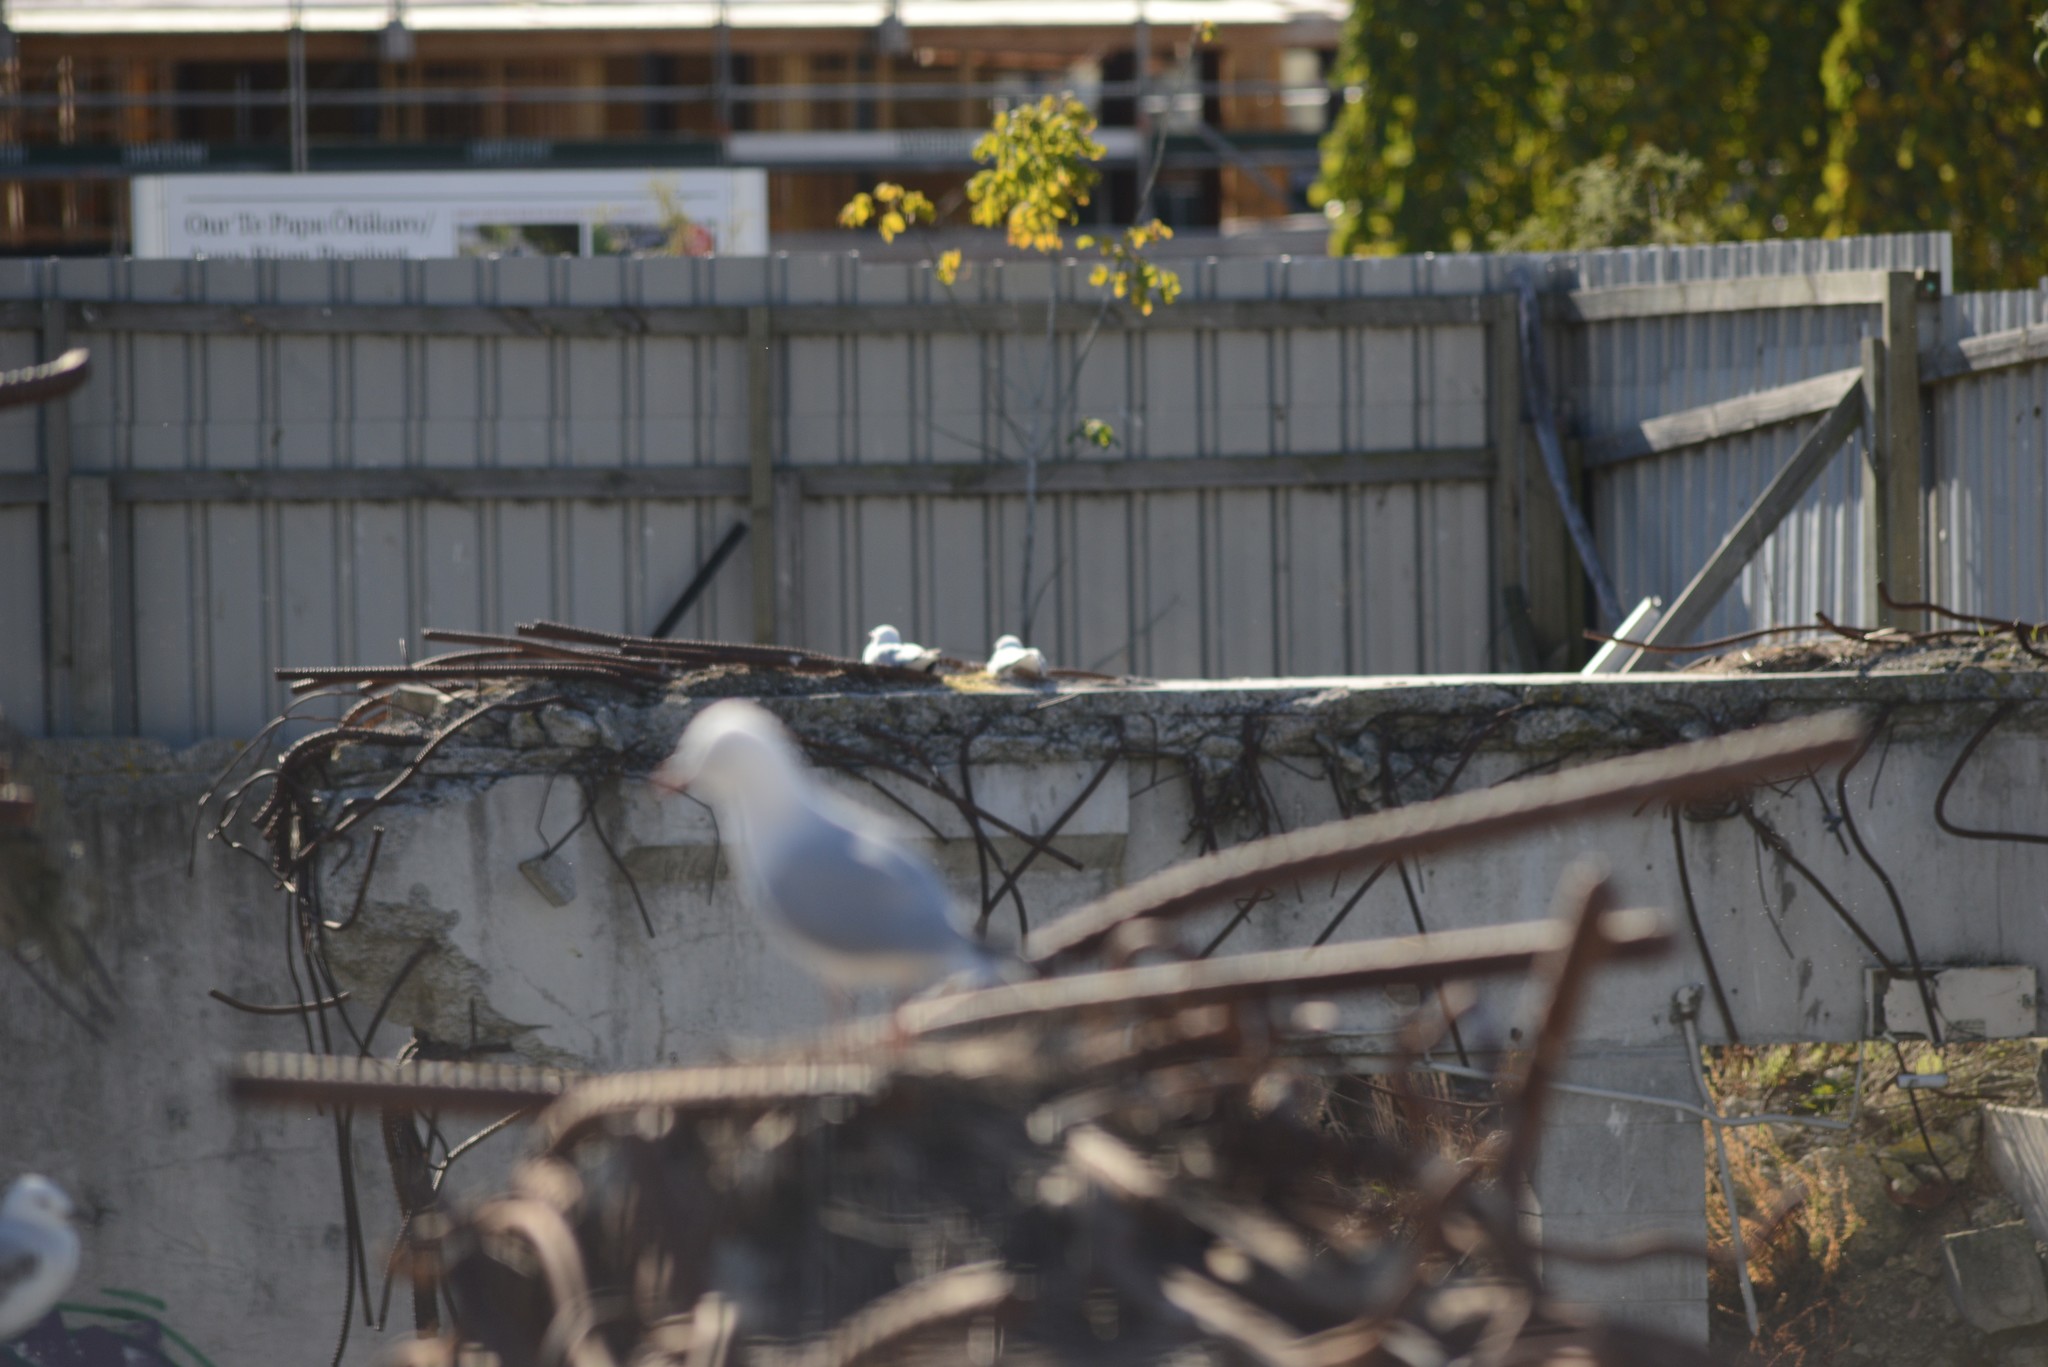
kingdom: Animalia
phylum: Chordata
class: Aves
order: Charadriiformes
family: Laridae
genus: Chroicocephalus
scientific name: Chroicocephalus novaehollandiae
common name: Silver gull
